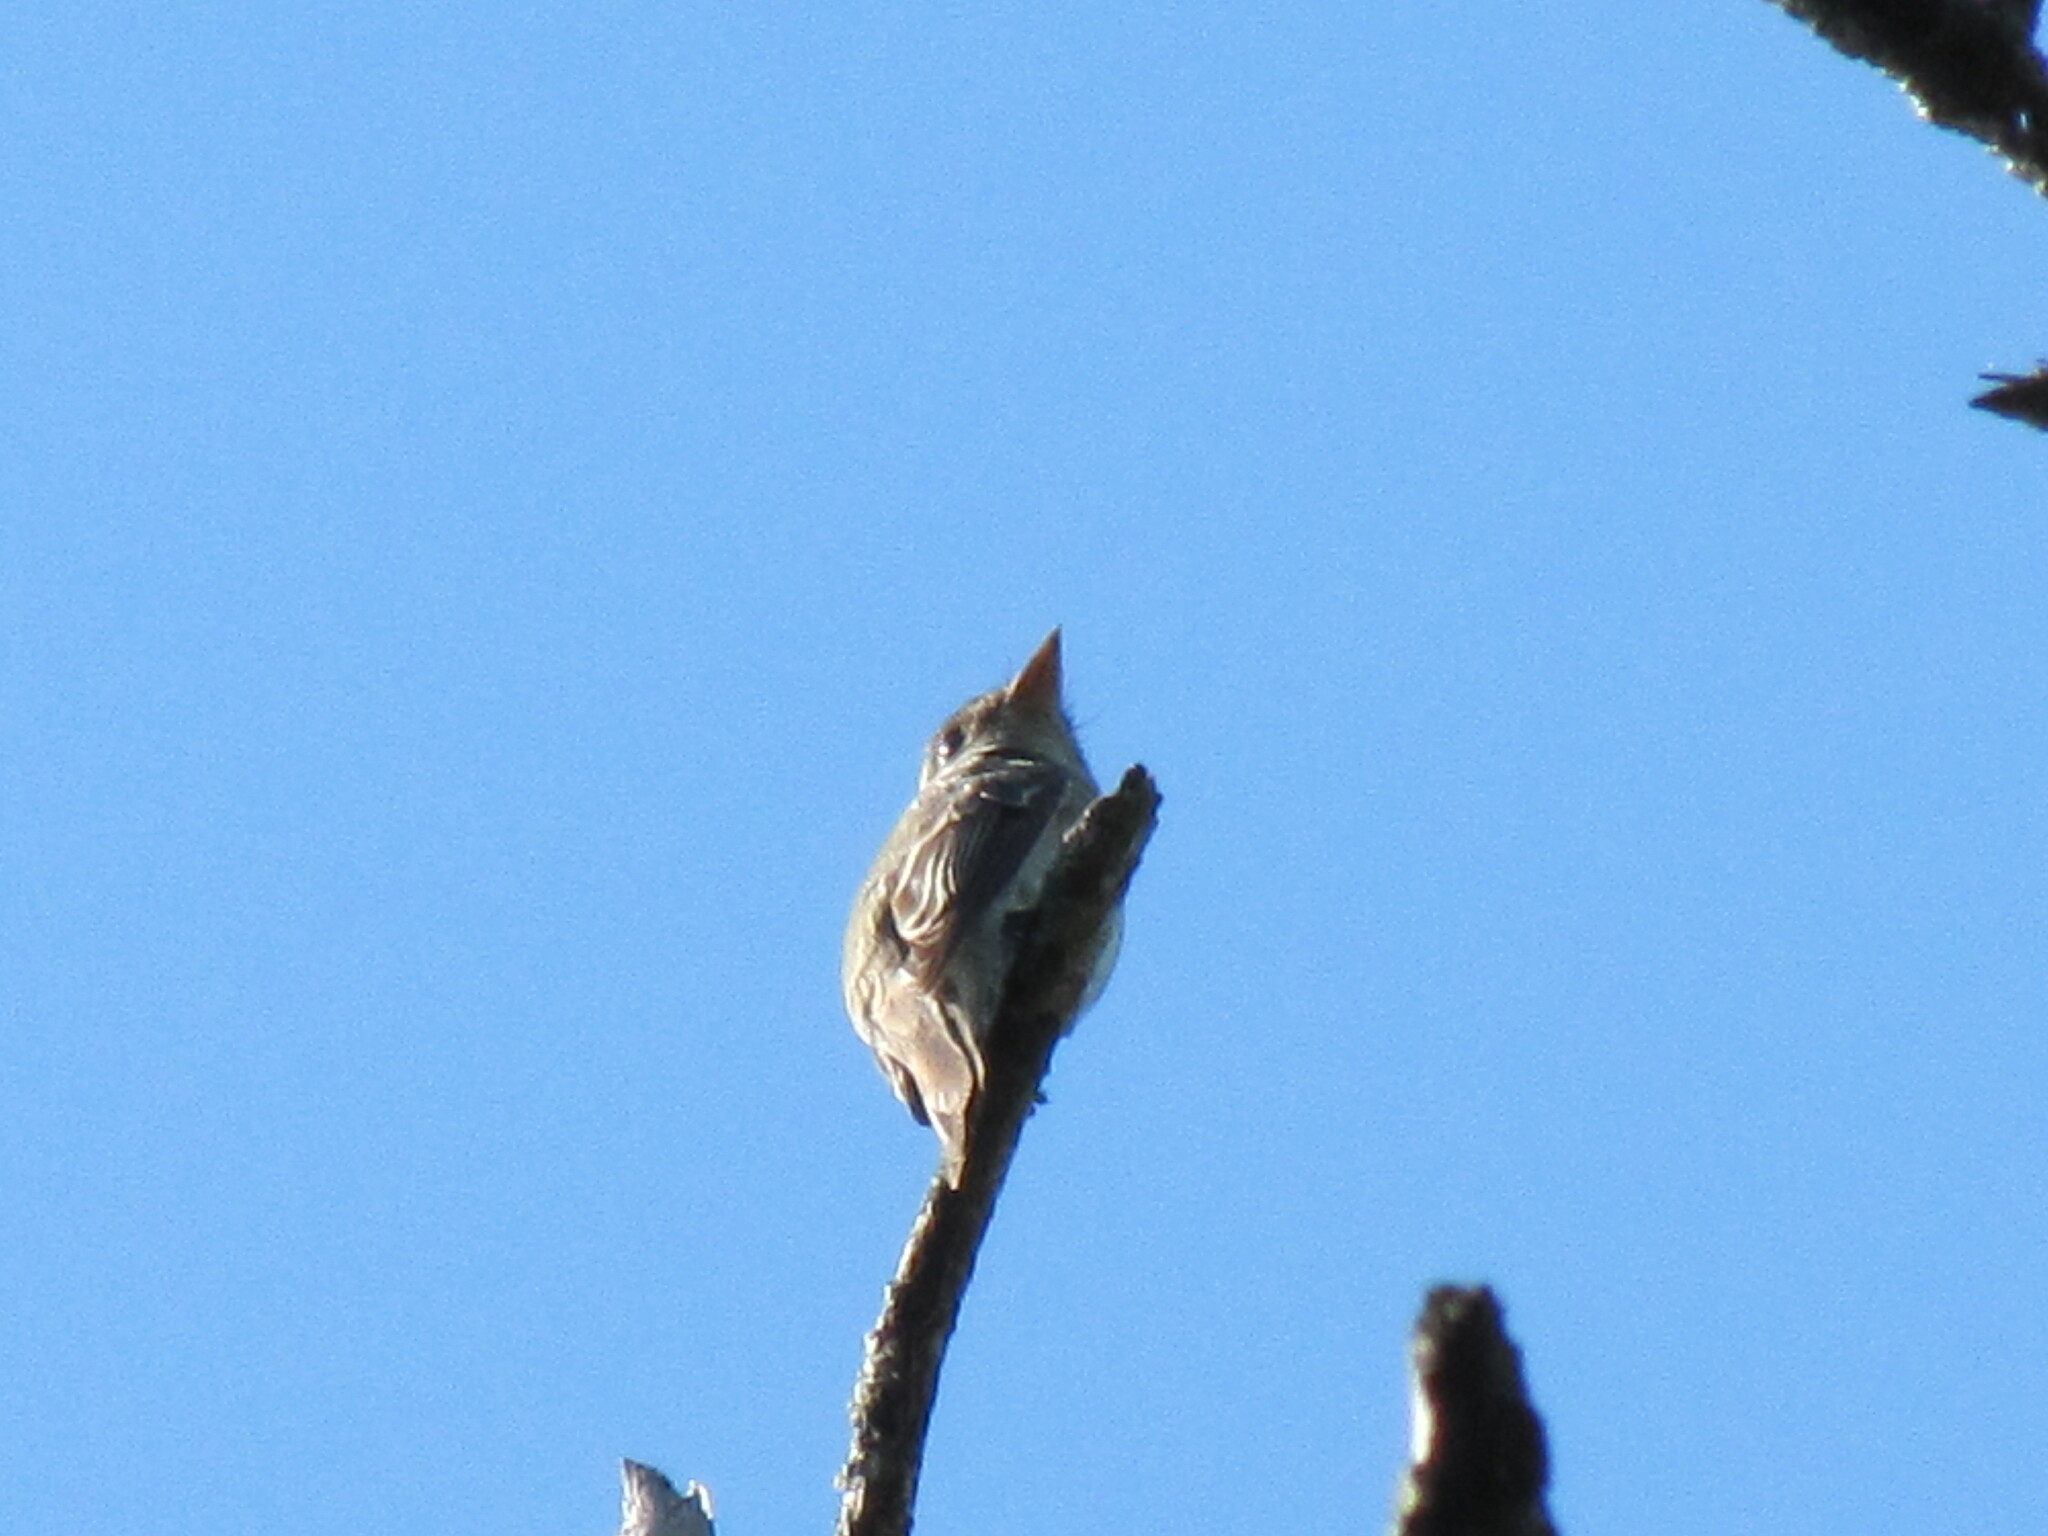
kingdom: Animalia
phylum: Chordata
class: Aves
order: Passeriformes
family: Tyrannidae
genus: Contopus
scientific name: Contopus virens
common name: Eastern wood-pewee
